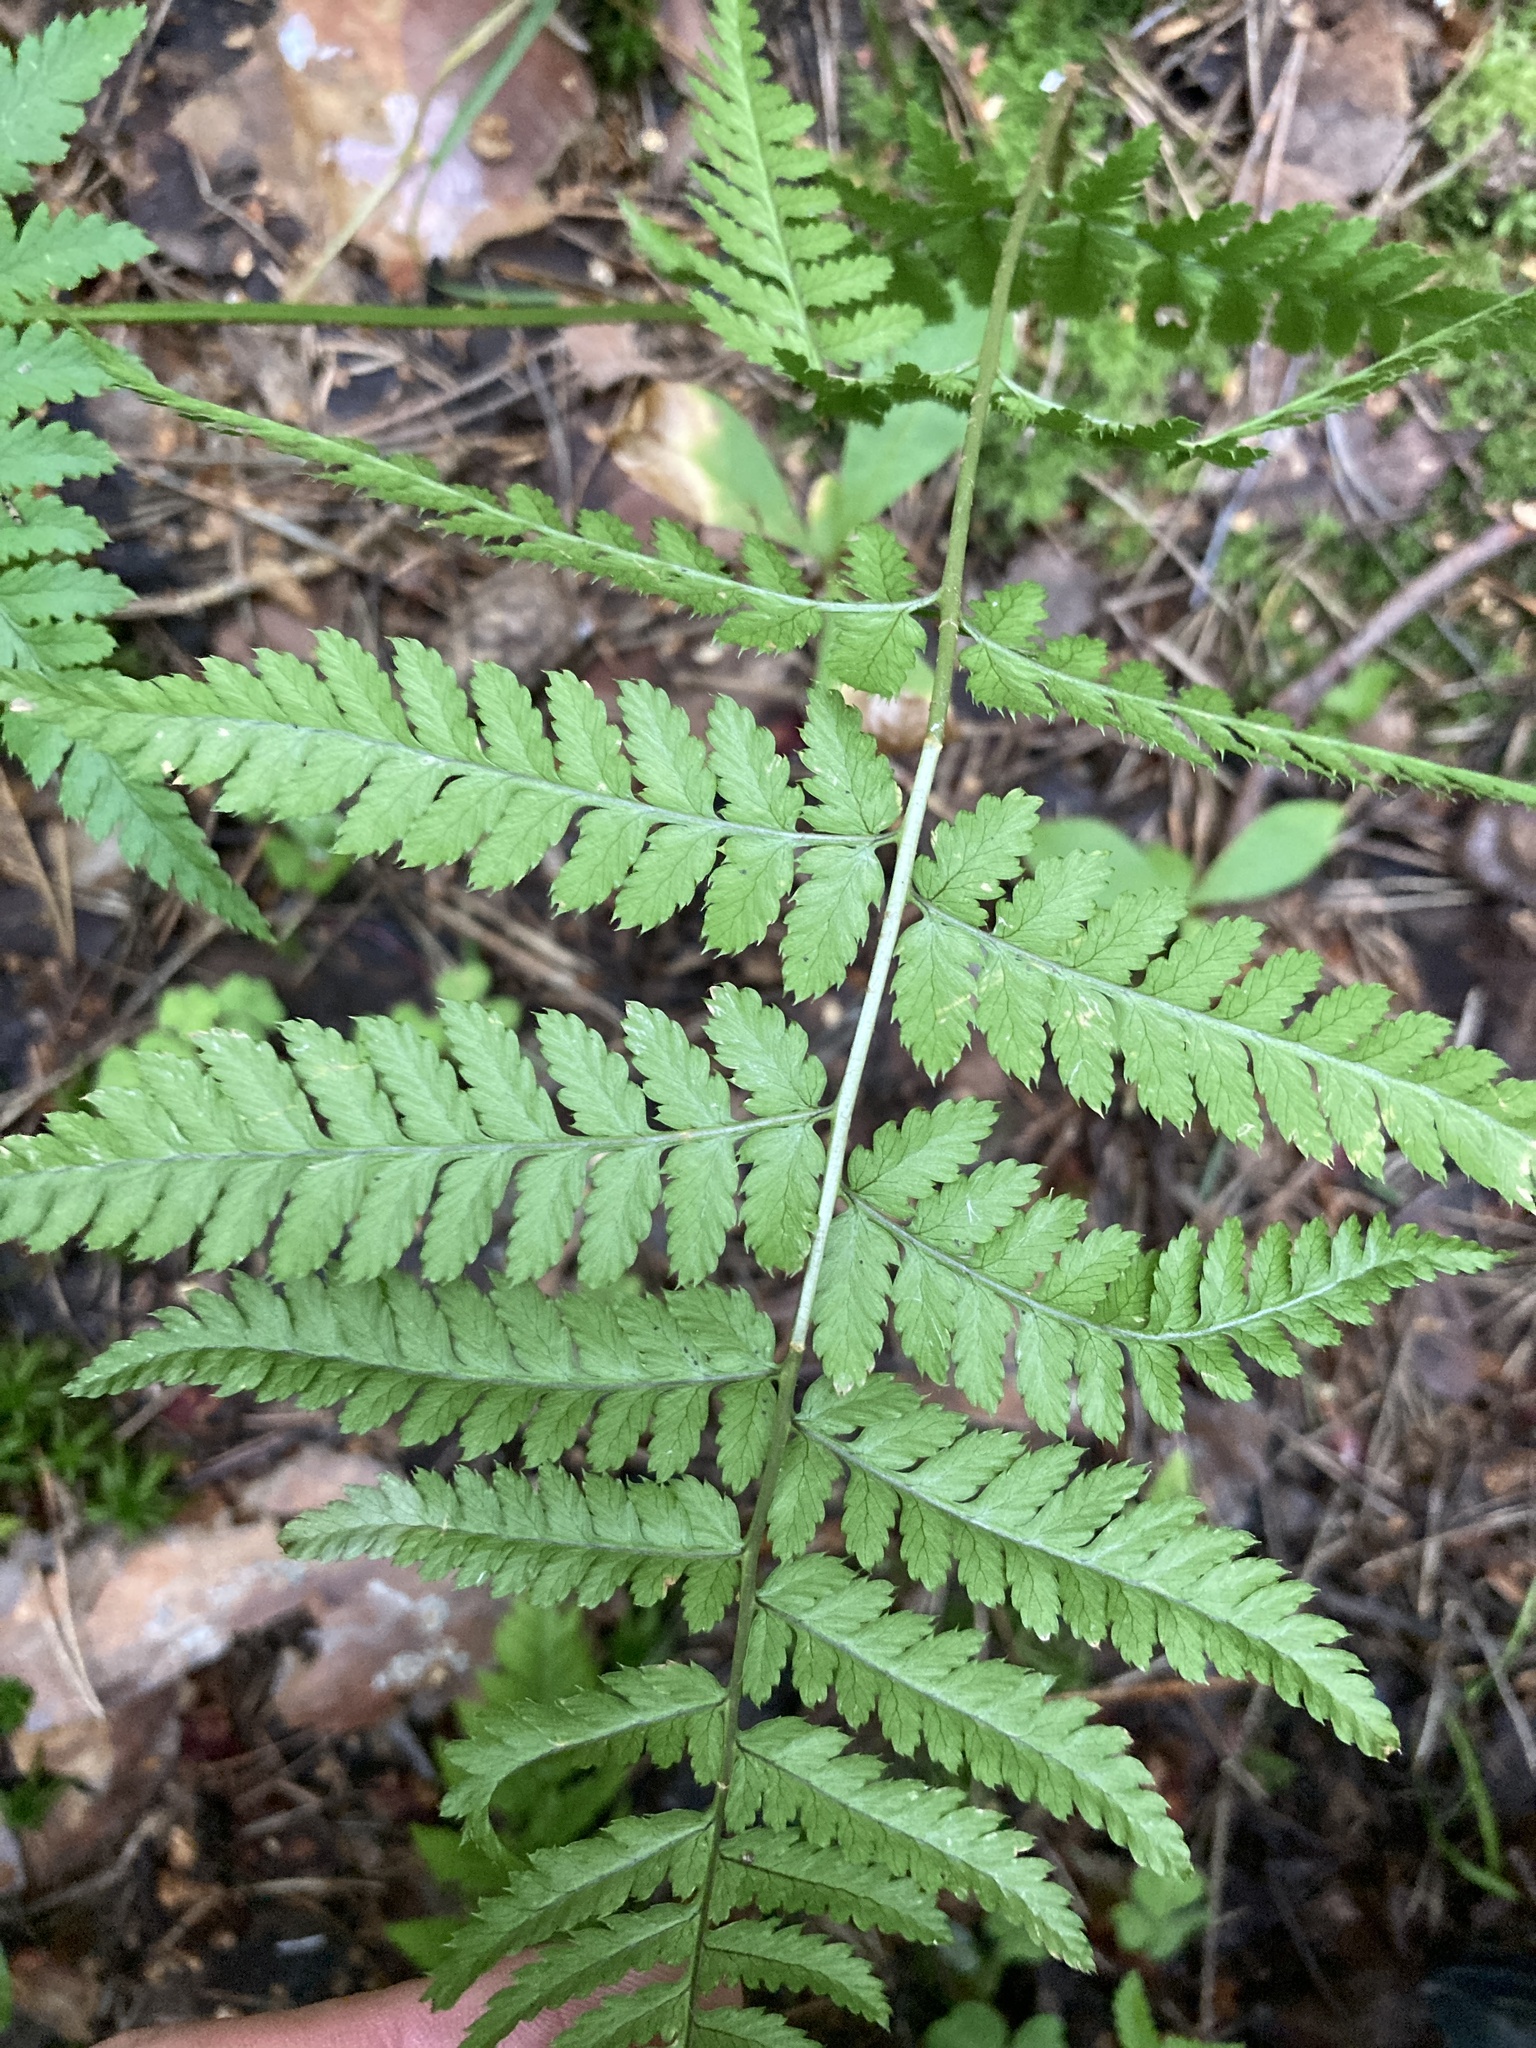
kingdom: Plantae
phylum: Tracheophyta
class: Polypodiopsida
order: Polypodiales
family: Dryopteridaceae
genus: Dryopteris
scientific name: Dryopteris carthusiana
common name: Narrow buckler-fern
